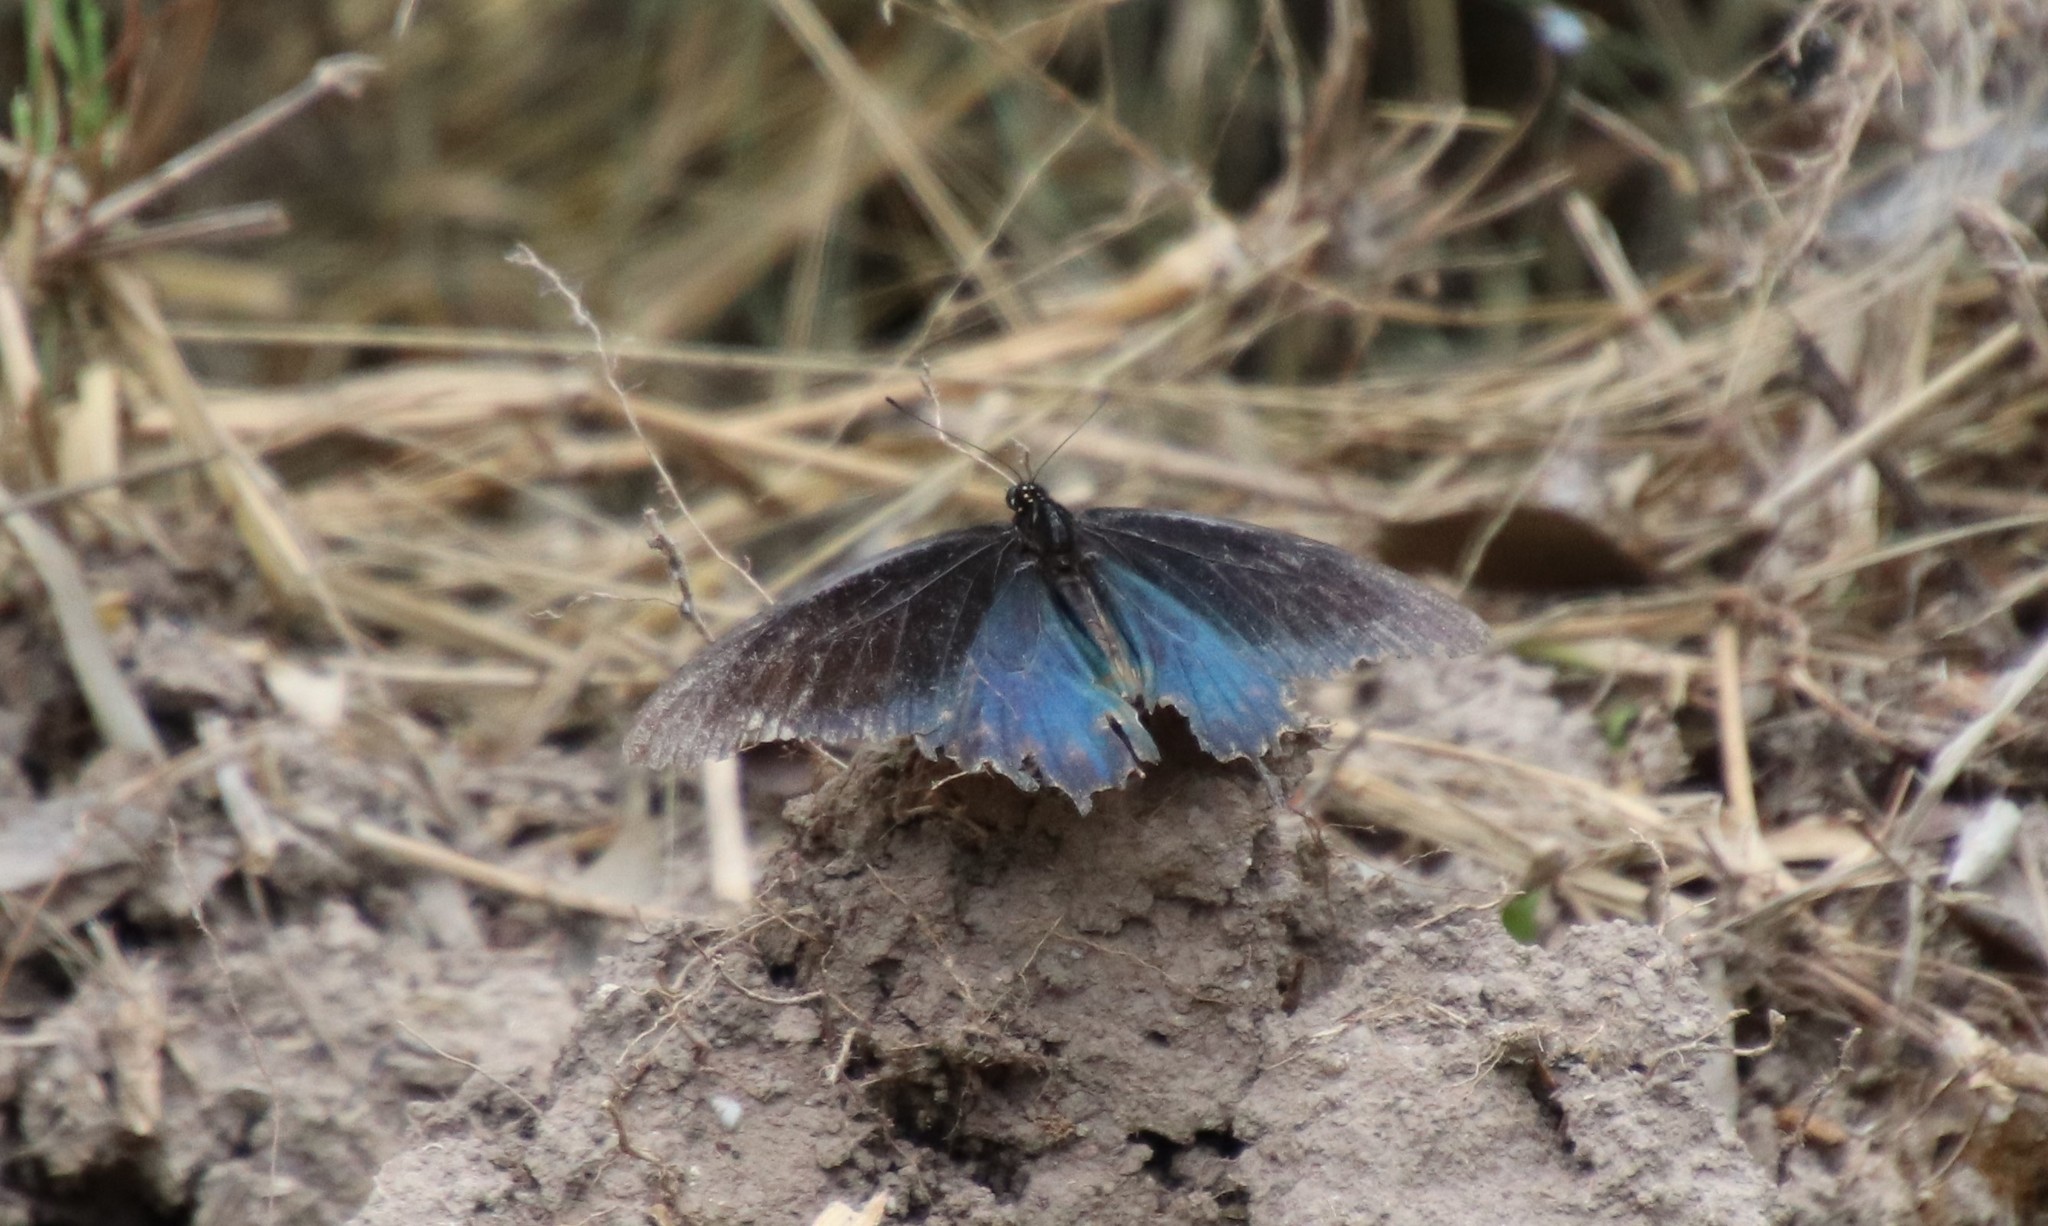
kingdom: Animalia
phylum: Arthropoda
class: Insecta
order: Lepidoptera
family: Papilionidae
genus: Battus
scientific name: Battus philenor
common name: Pipevine swallowtail
